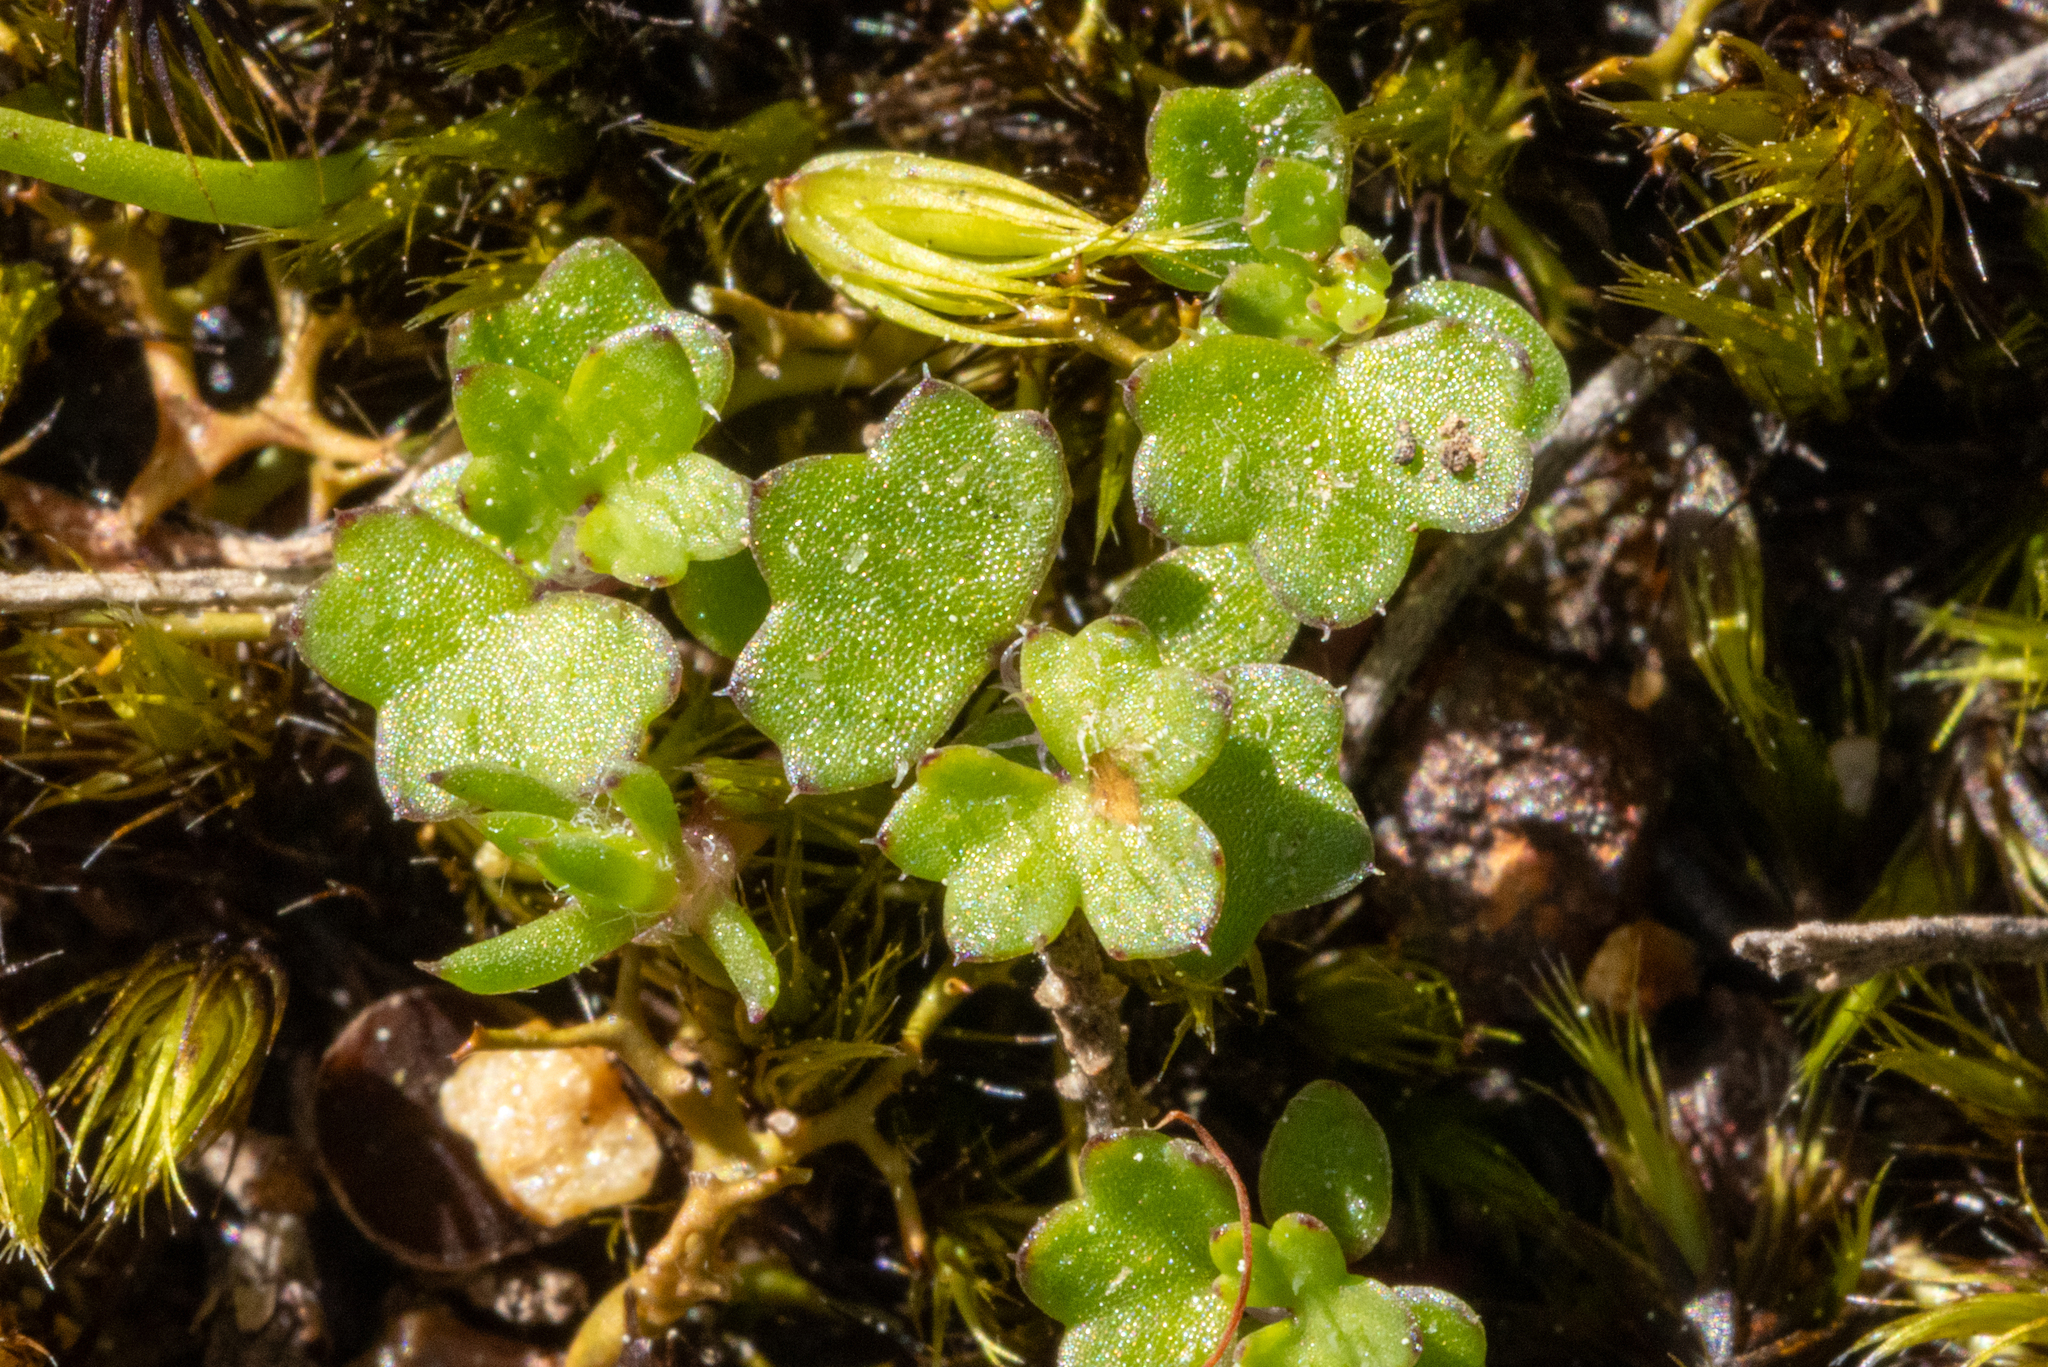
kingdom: Plantae
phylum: Tracheophyta
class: Magnoliopsida
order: Apiales
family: Araliaceae
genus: Hydrocotyle
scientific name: Hydrocotyle callicarpa
